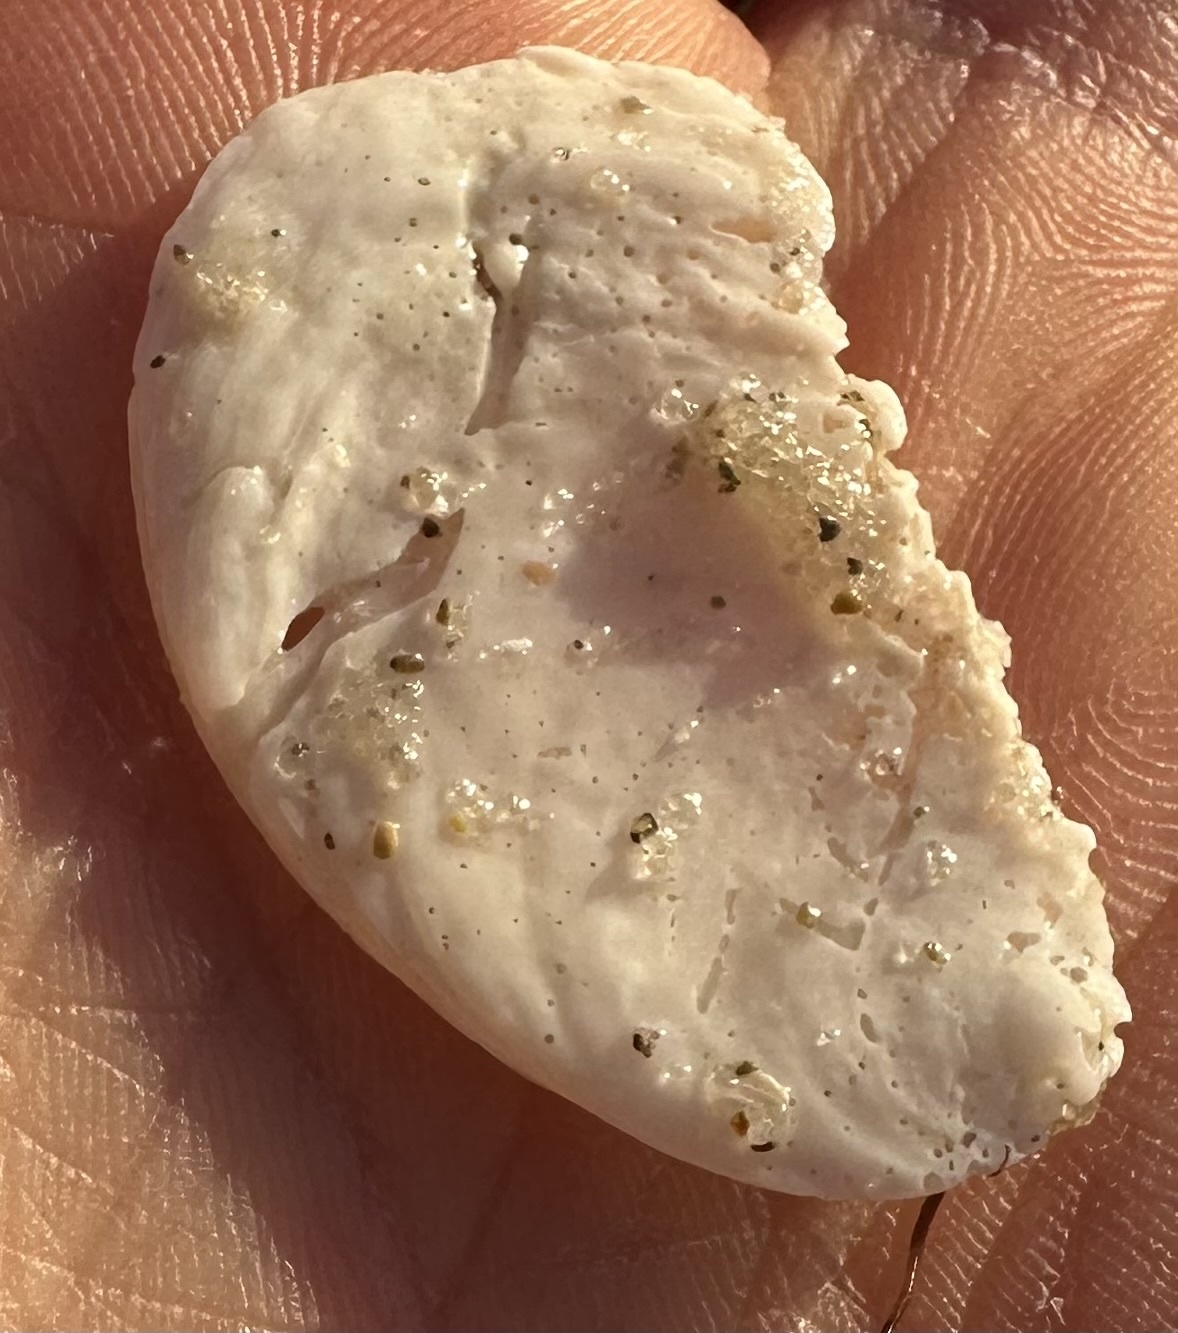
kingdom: Animalia
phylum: Mollusca
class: Gastropoda
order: Littorinimorpha
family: Calyptraeidae
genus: Crepidula
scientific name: Crepidula plana
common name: Eastern white slippersnail
